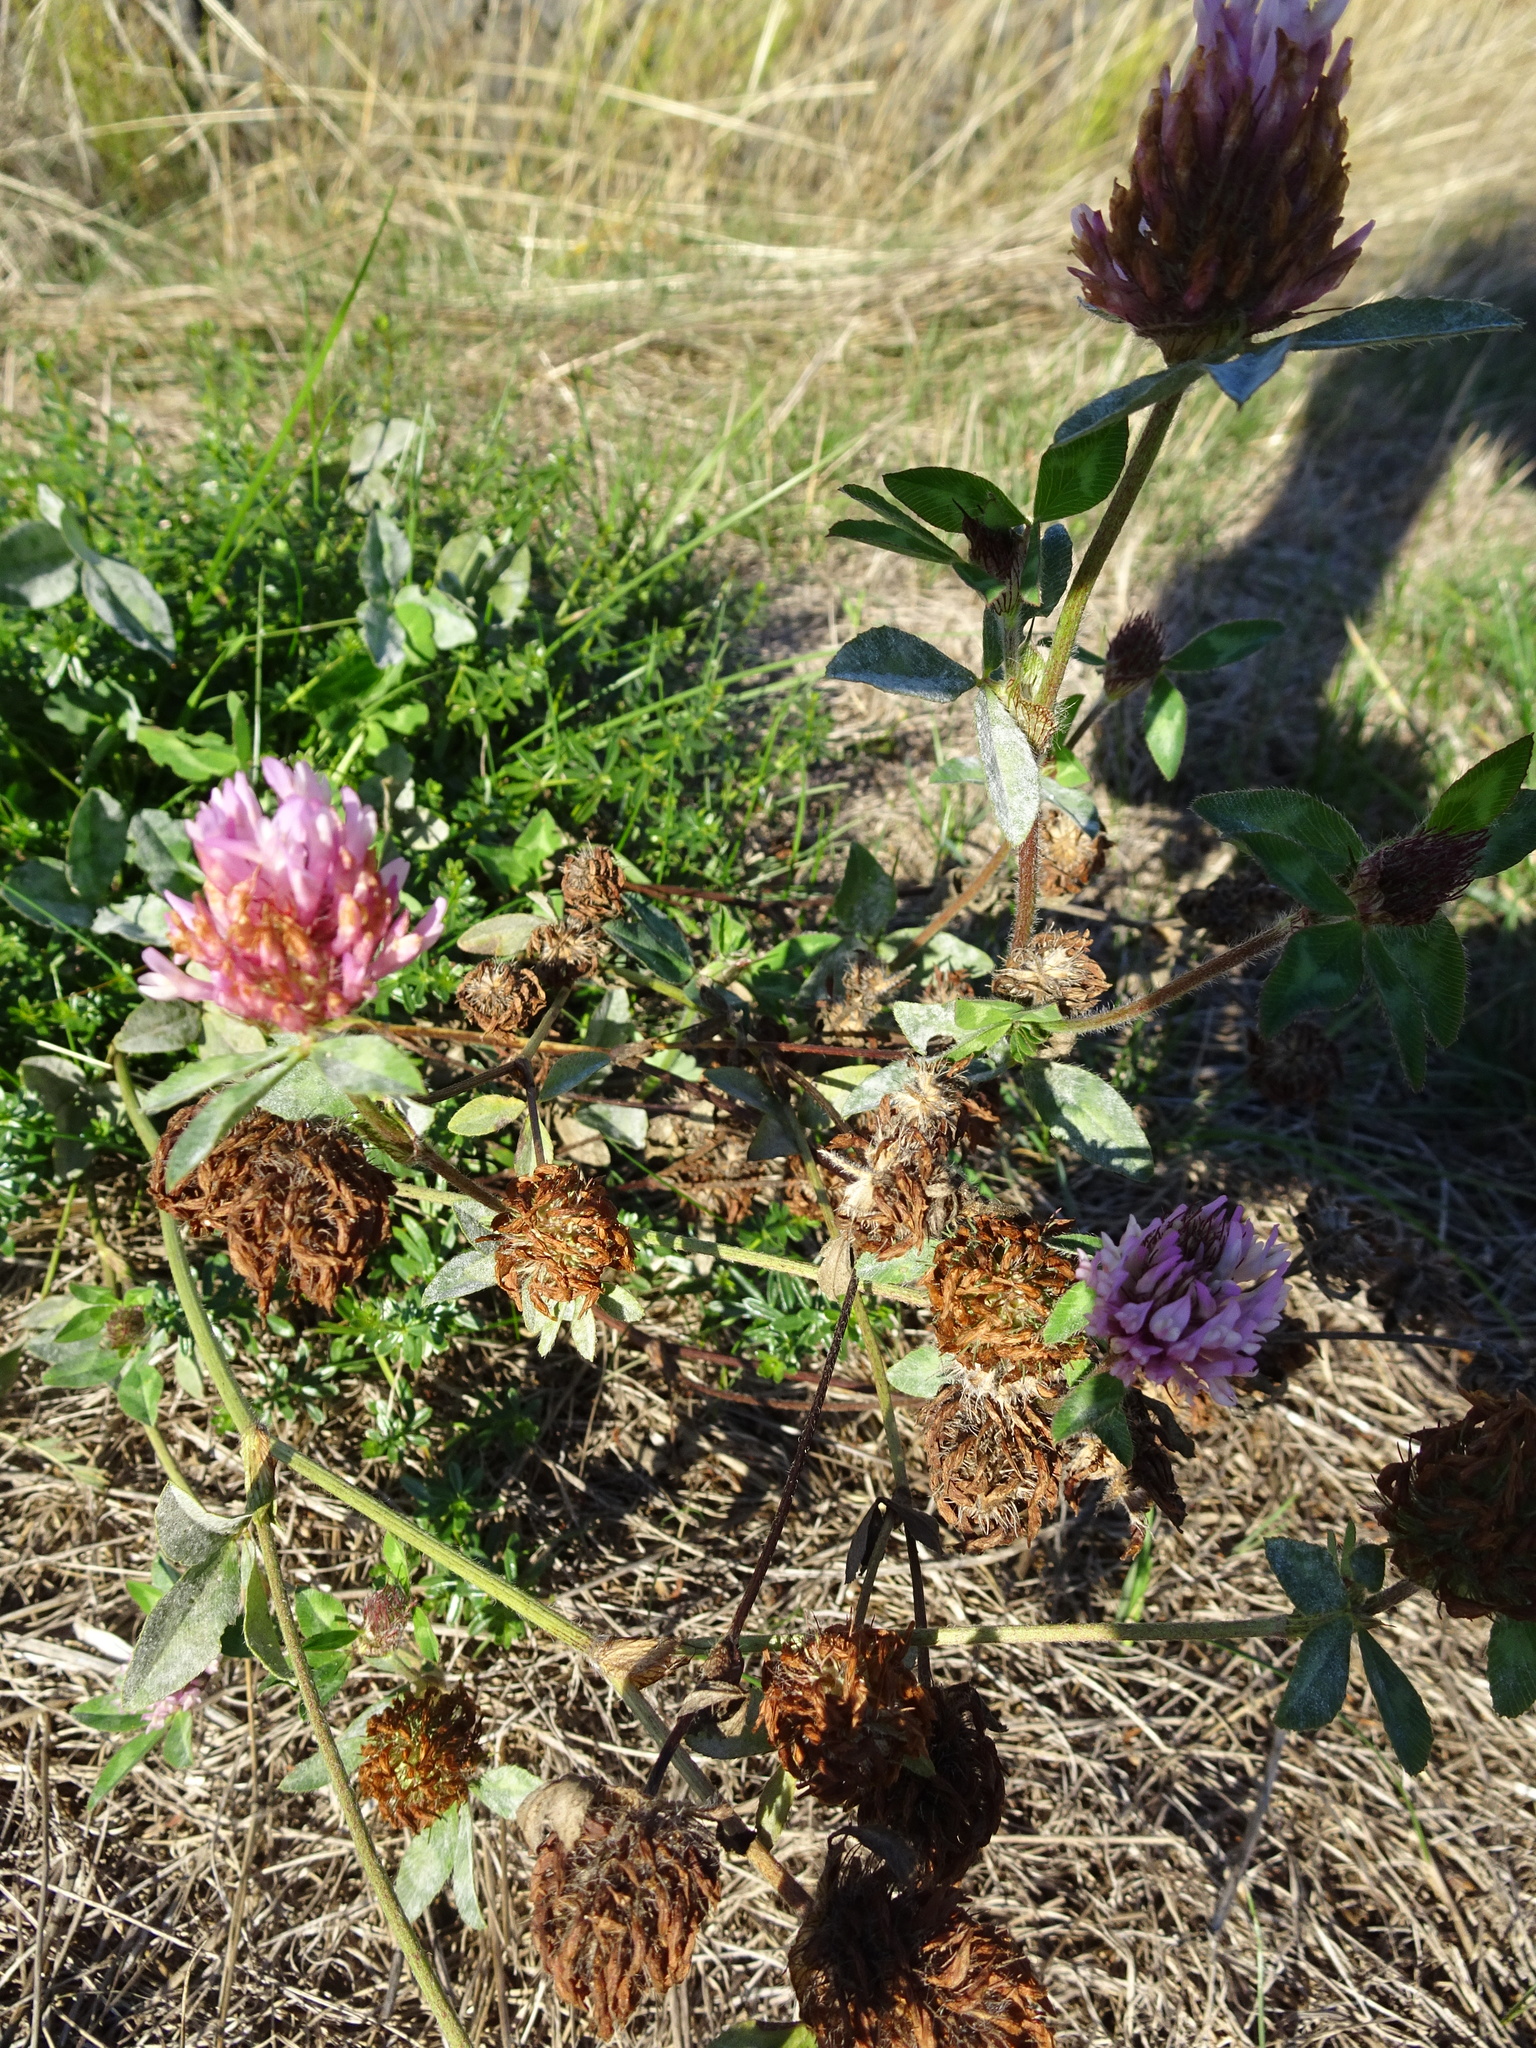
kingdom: Plantae
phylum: Tracheophyta
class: Magnoliopsida
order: Fabales
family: Fabaceae
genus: Trifolium
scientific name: Trifolium pratense
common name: Red clover
